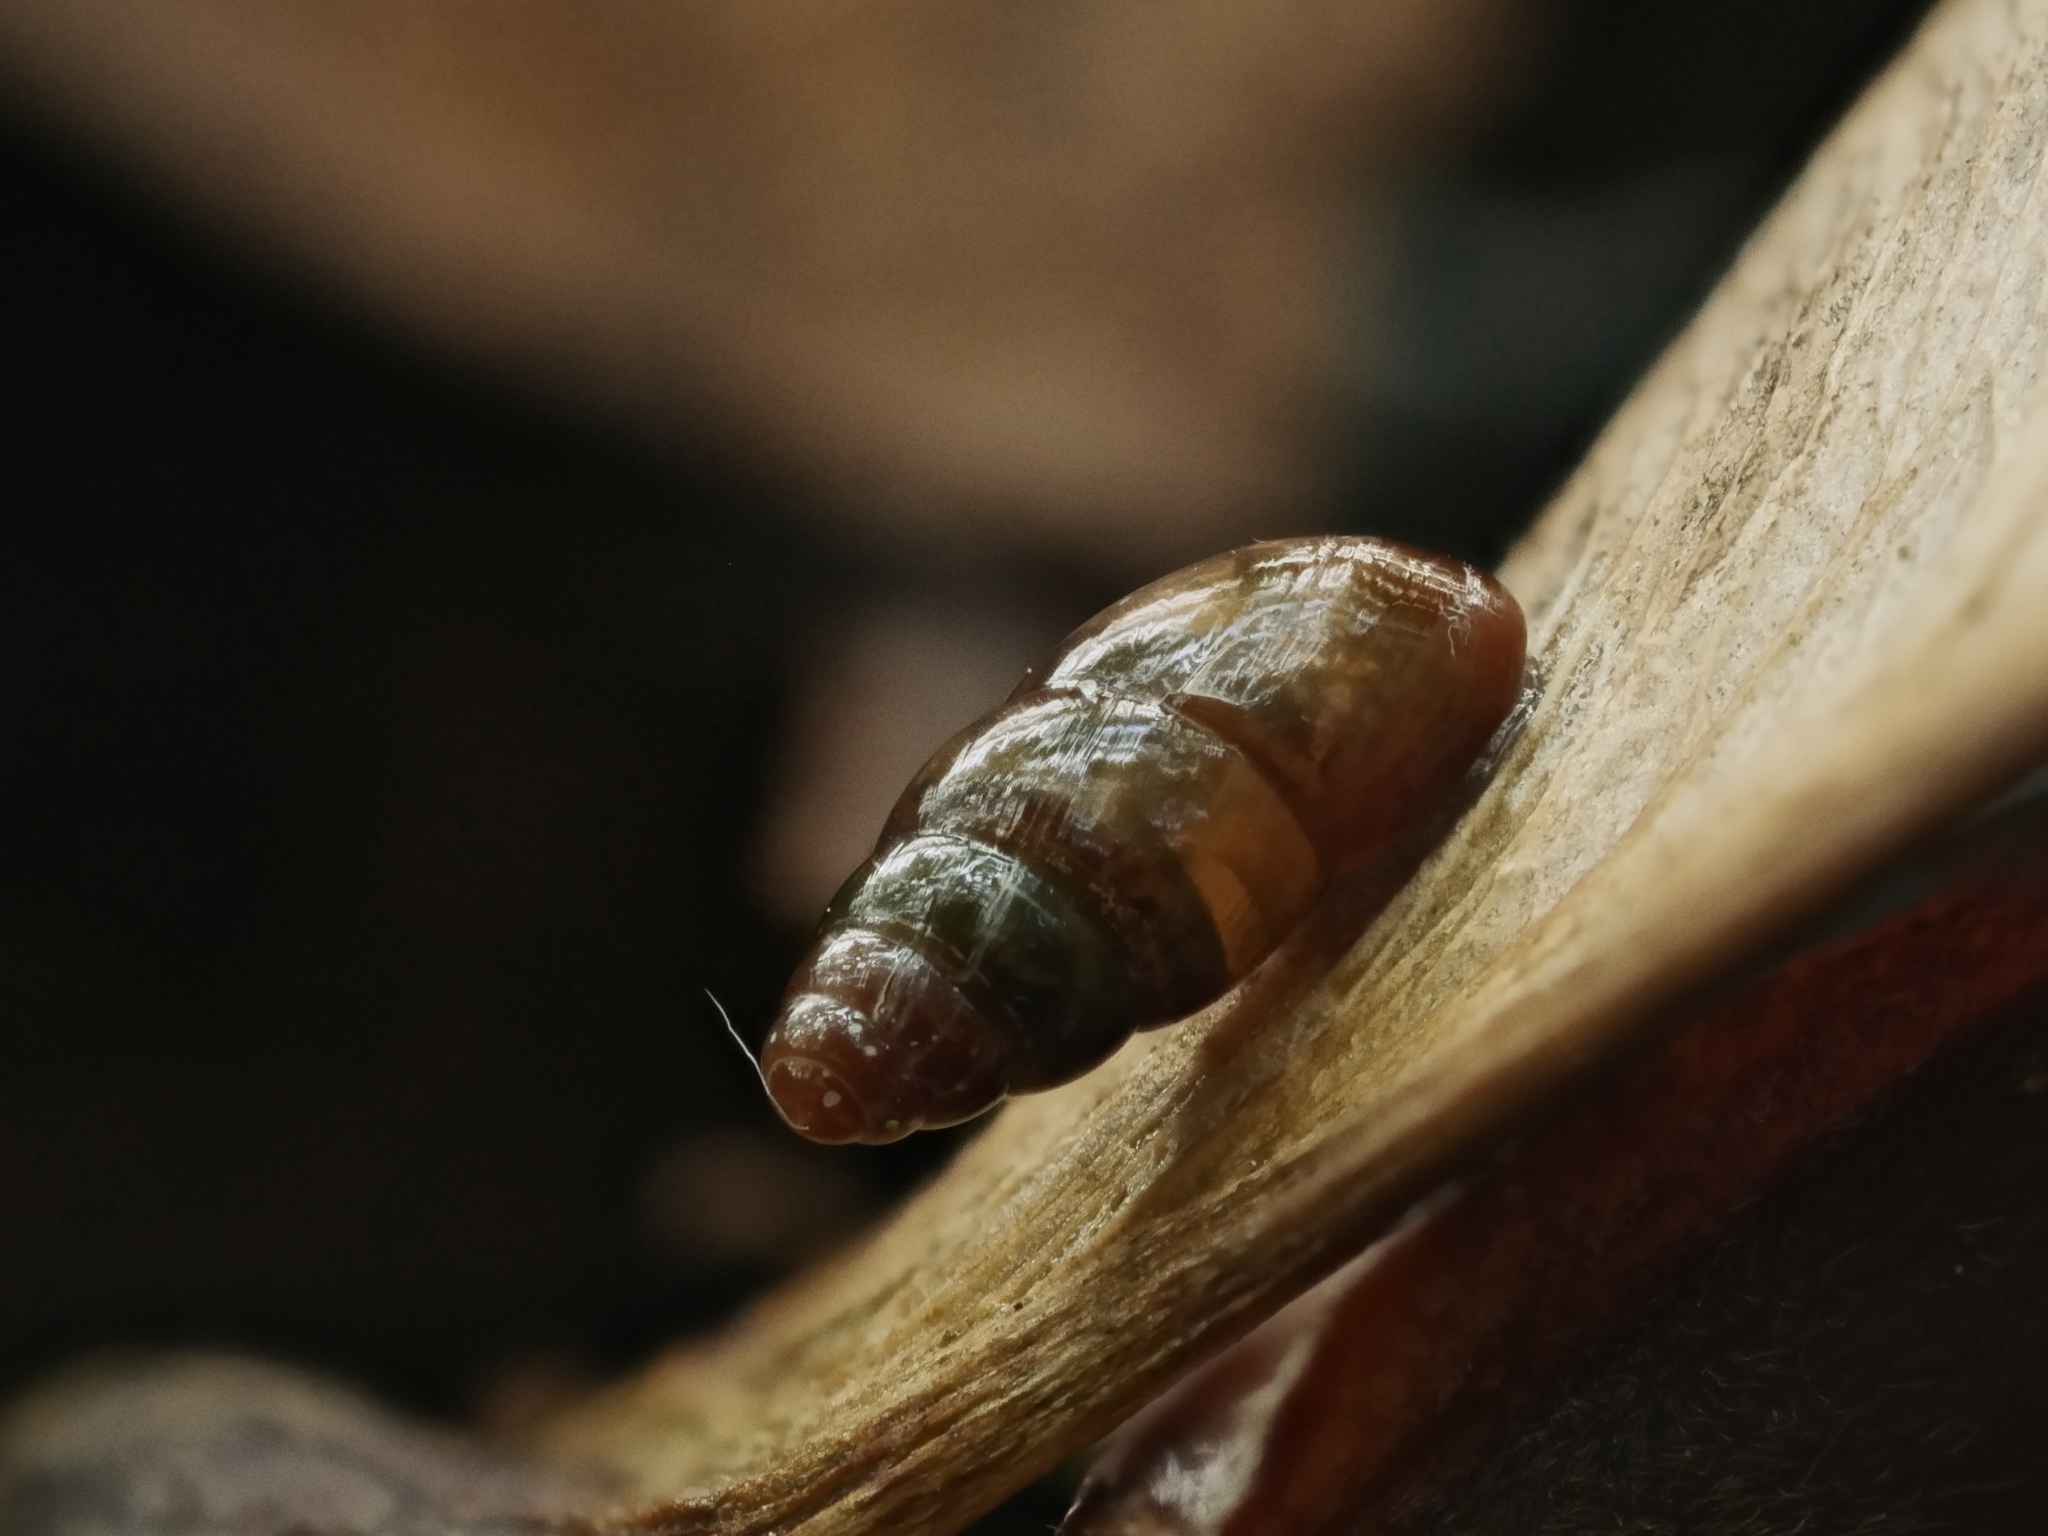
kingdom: Animalia
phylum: Mollusca
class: Gastropoda
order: Stylommatophora
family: Cochlicopidae
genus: Cochlicopa
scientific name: Cochlicopa lubrica
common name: Glossy pillar snail
